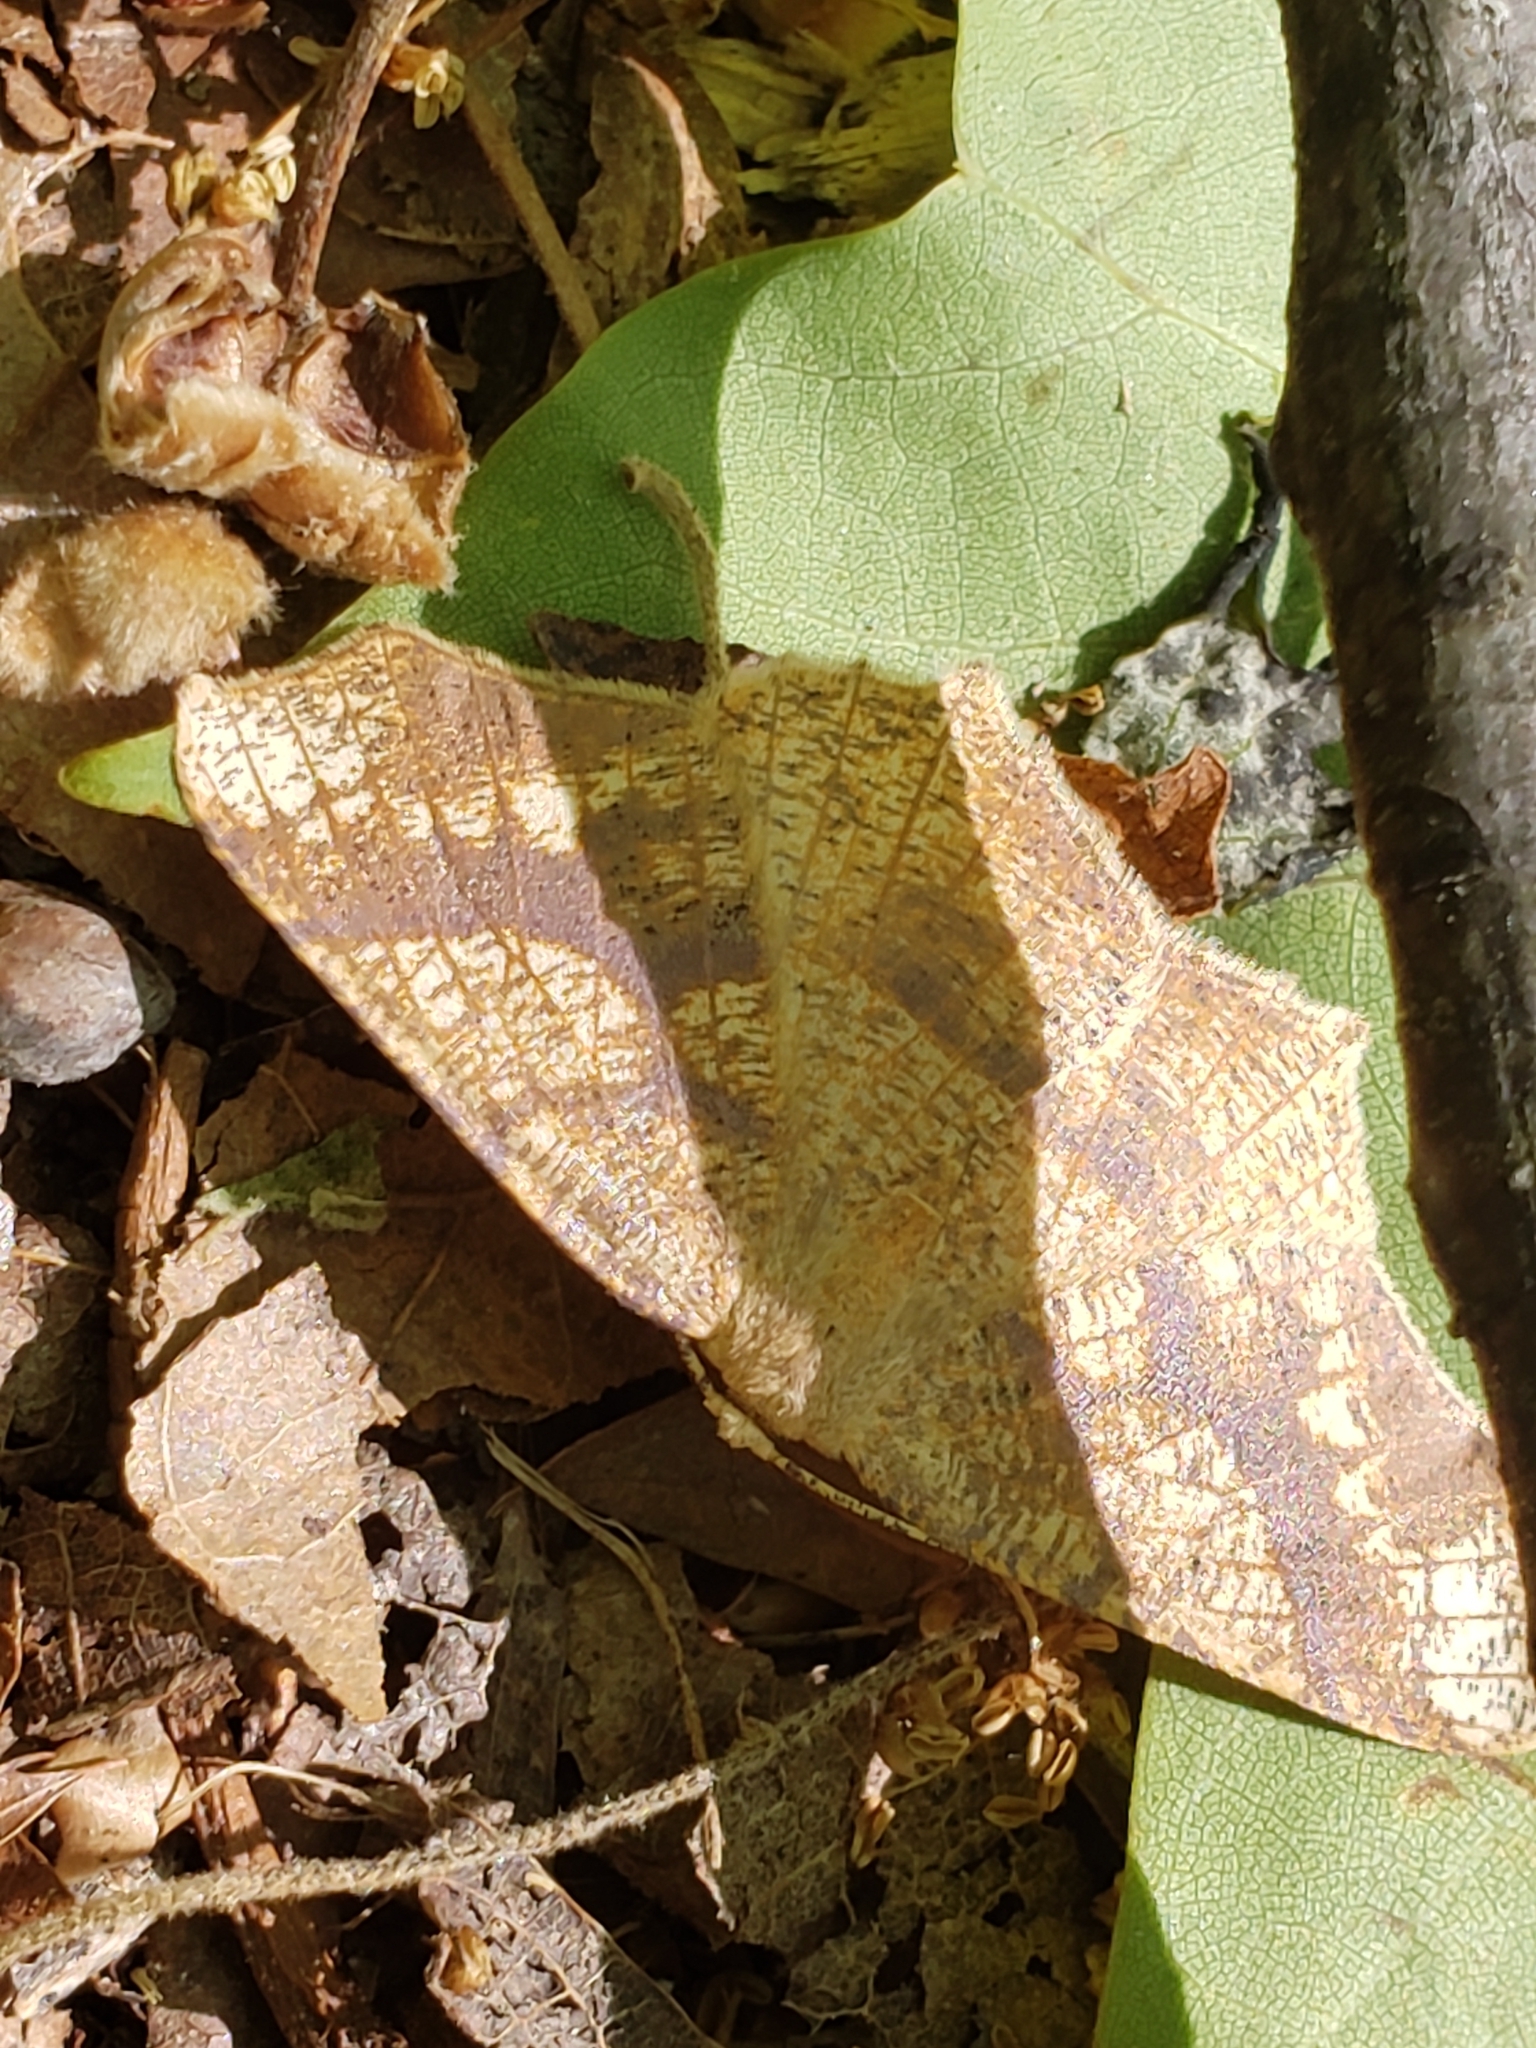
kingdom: Animalia
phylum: Arthropoda
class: Insecta
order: Lepidoptera
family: Geometridae
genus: Besma
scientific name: Besma quercivoraria
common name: Oak besma
